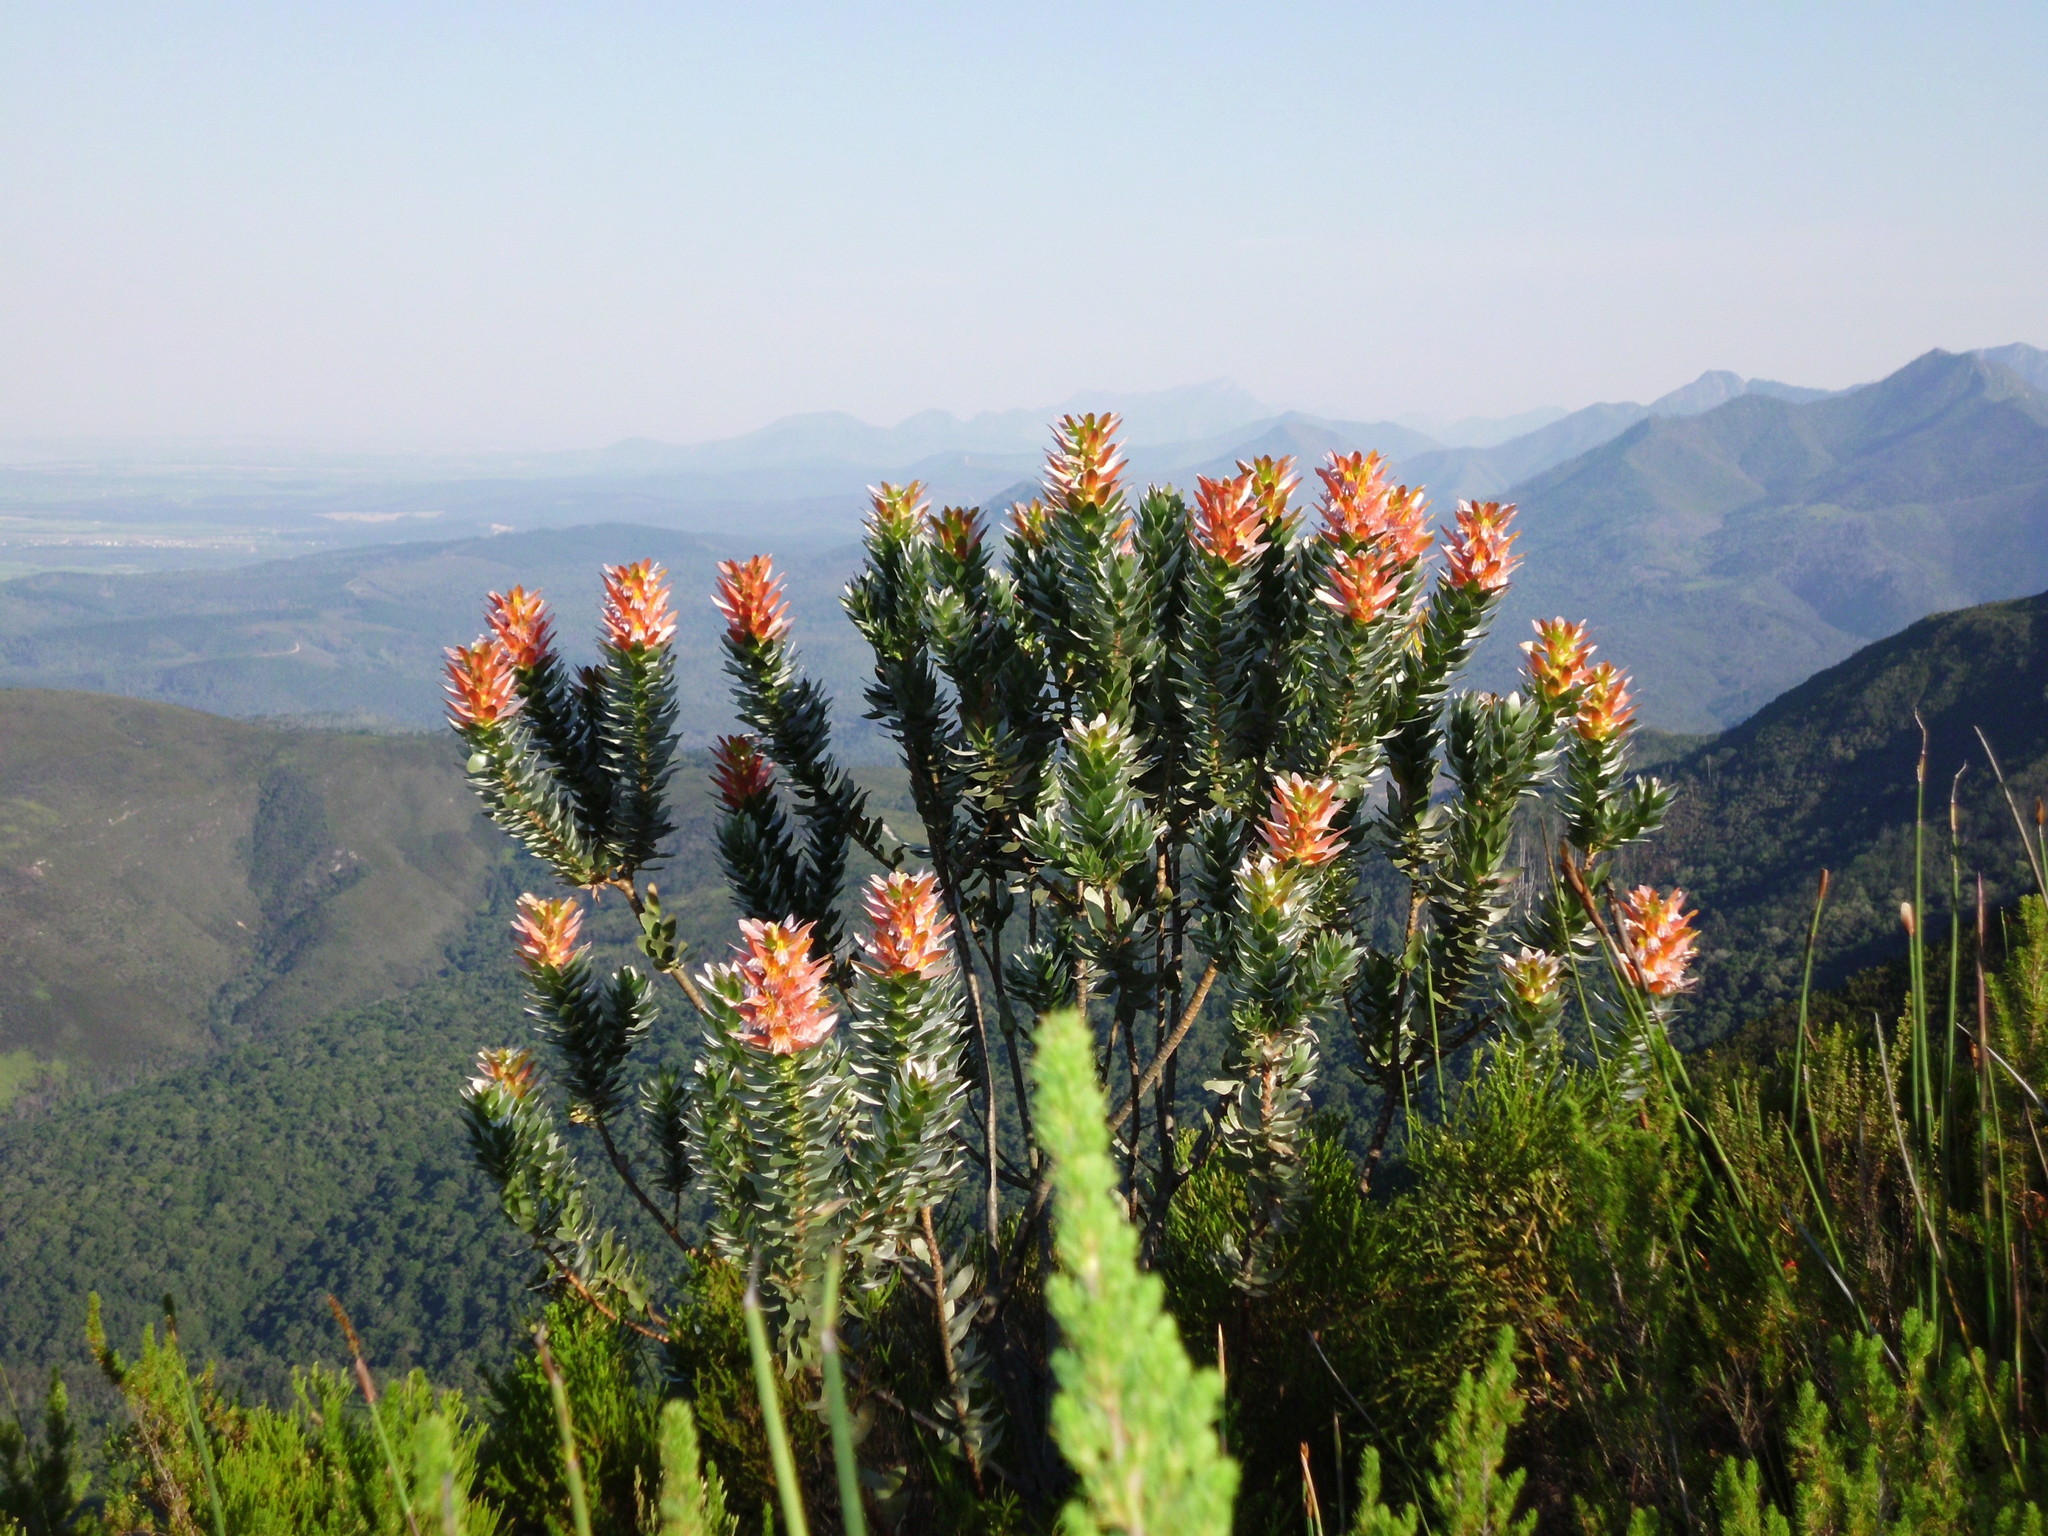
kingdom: Plantae
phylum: Tracheophyta
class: Magnoliopsida
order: Proteales
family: Proteaceae
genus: Mimetes
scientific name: Mimetes splendidus
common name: Splendid pagoda
